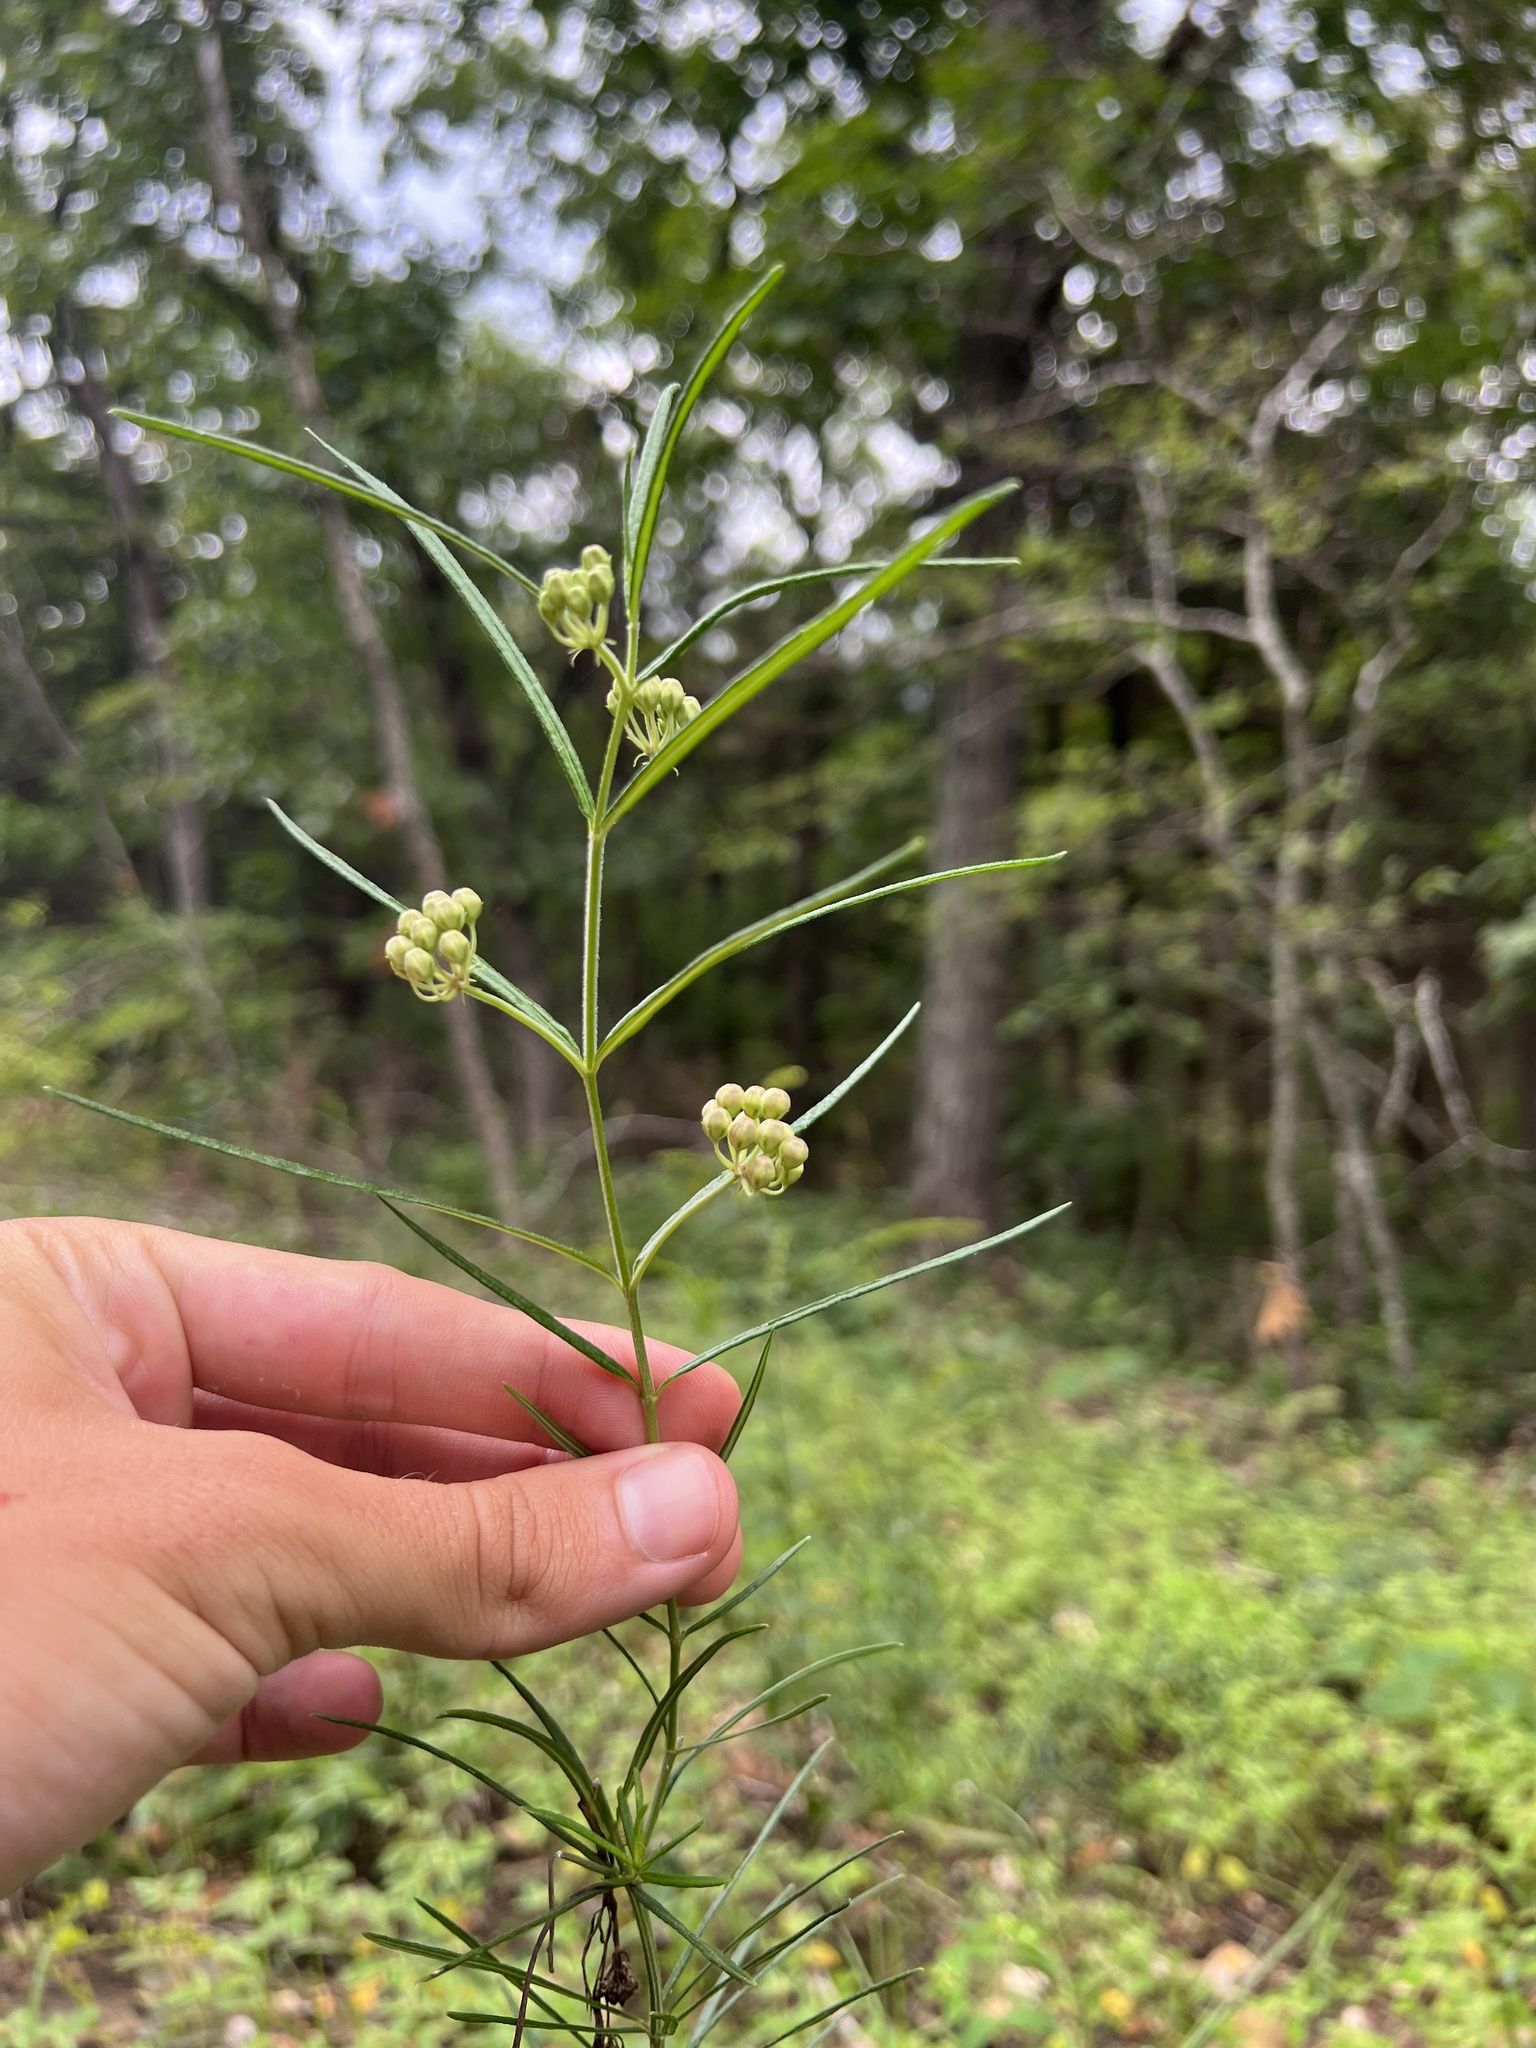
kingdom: Plantae
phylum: Tracheophyta
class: Magnoliopsida
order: Gentianales
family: Apocynaceae
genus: Asclepias
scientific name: Asclepias verticillata
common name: Eastern whorled milkweed
